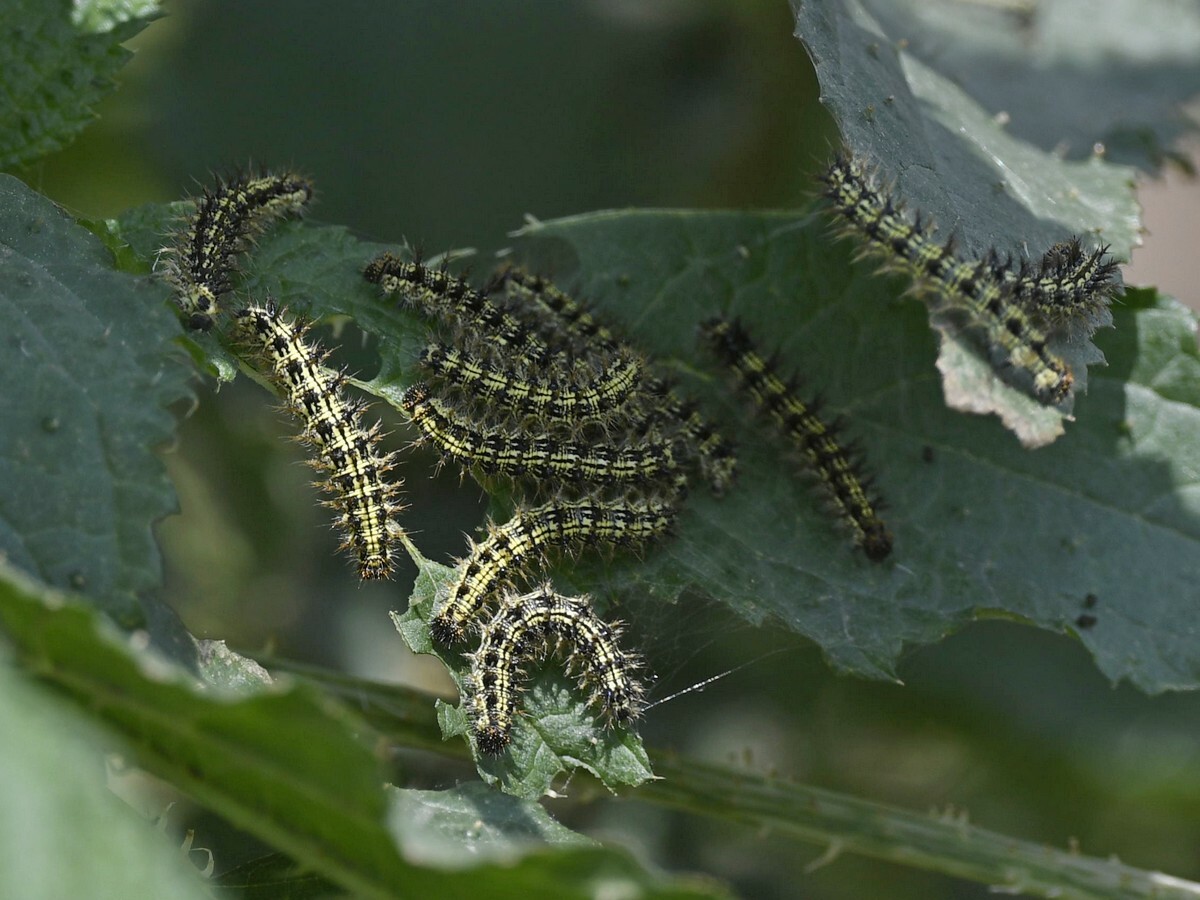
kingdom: Animalia
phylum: Arthropoda
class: Insecta
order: Lepidoptera
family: Nymphalidae
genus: Aglais
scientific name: Aglais caschmirensis
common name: Indian tortoiseshell
